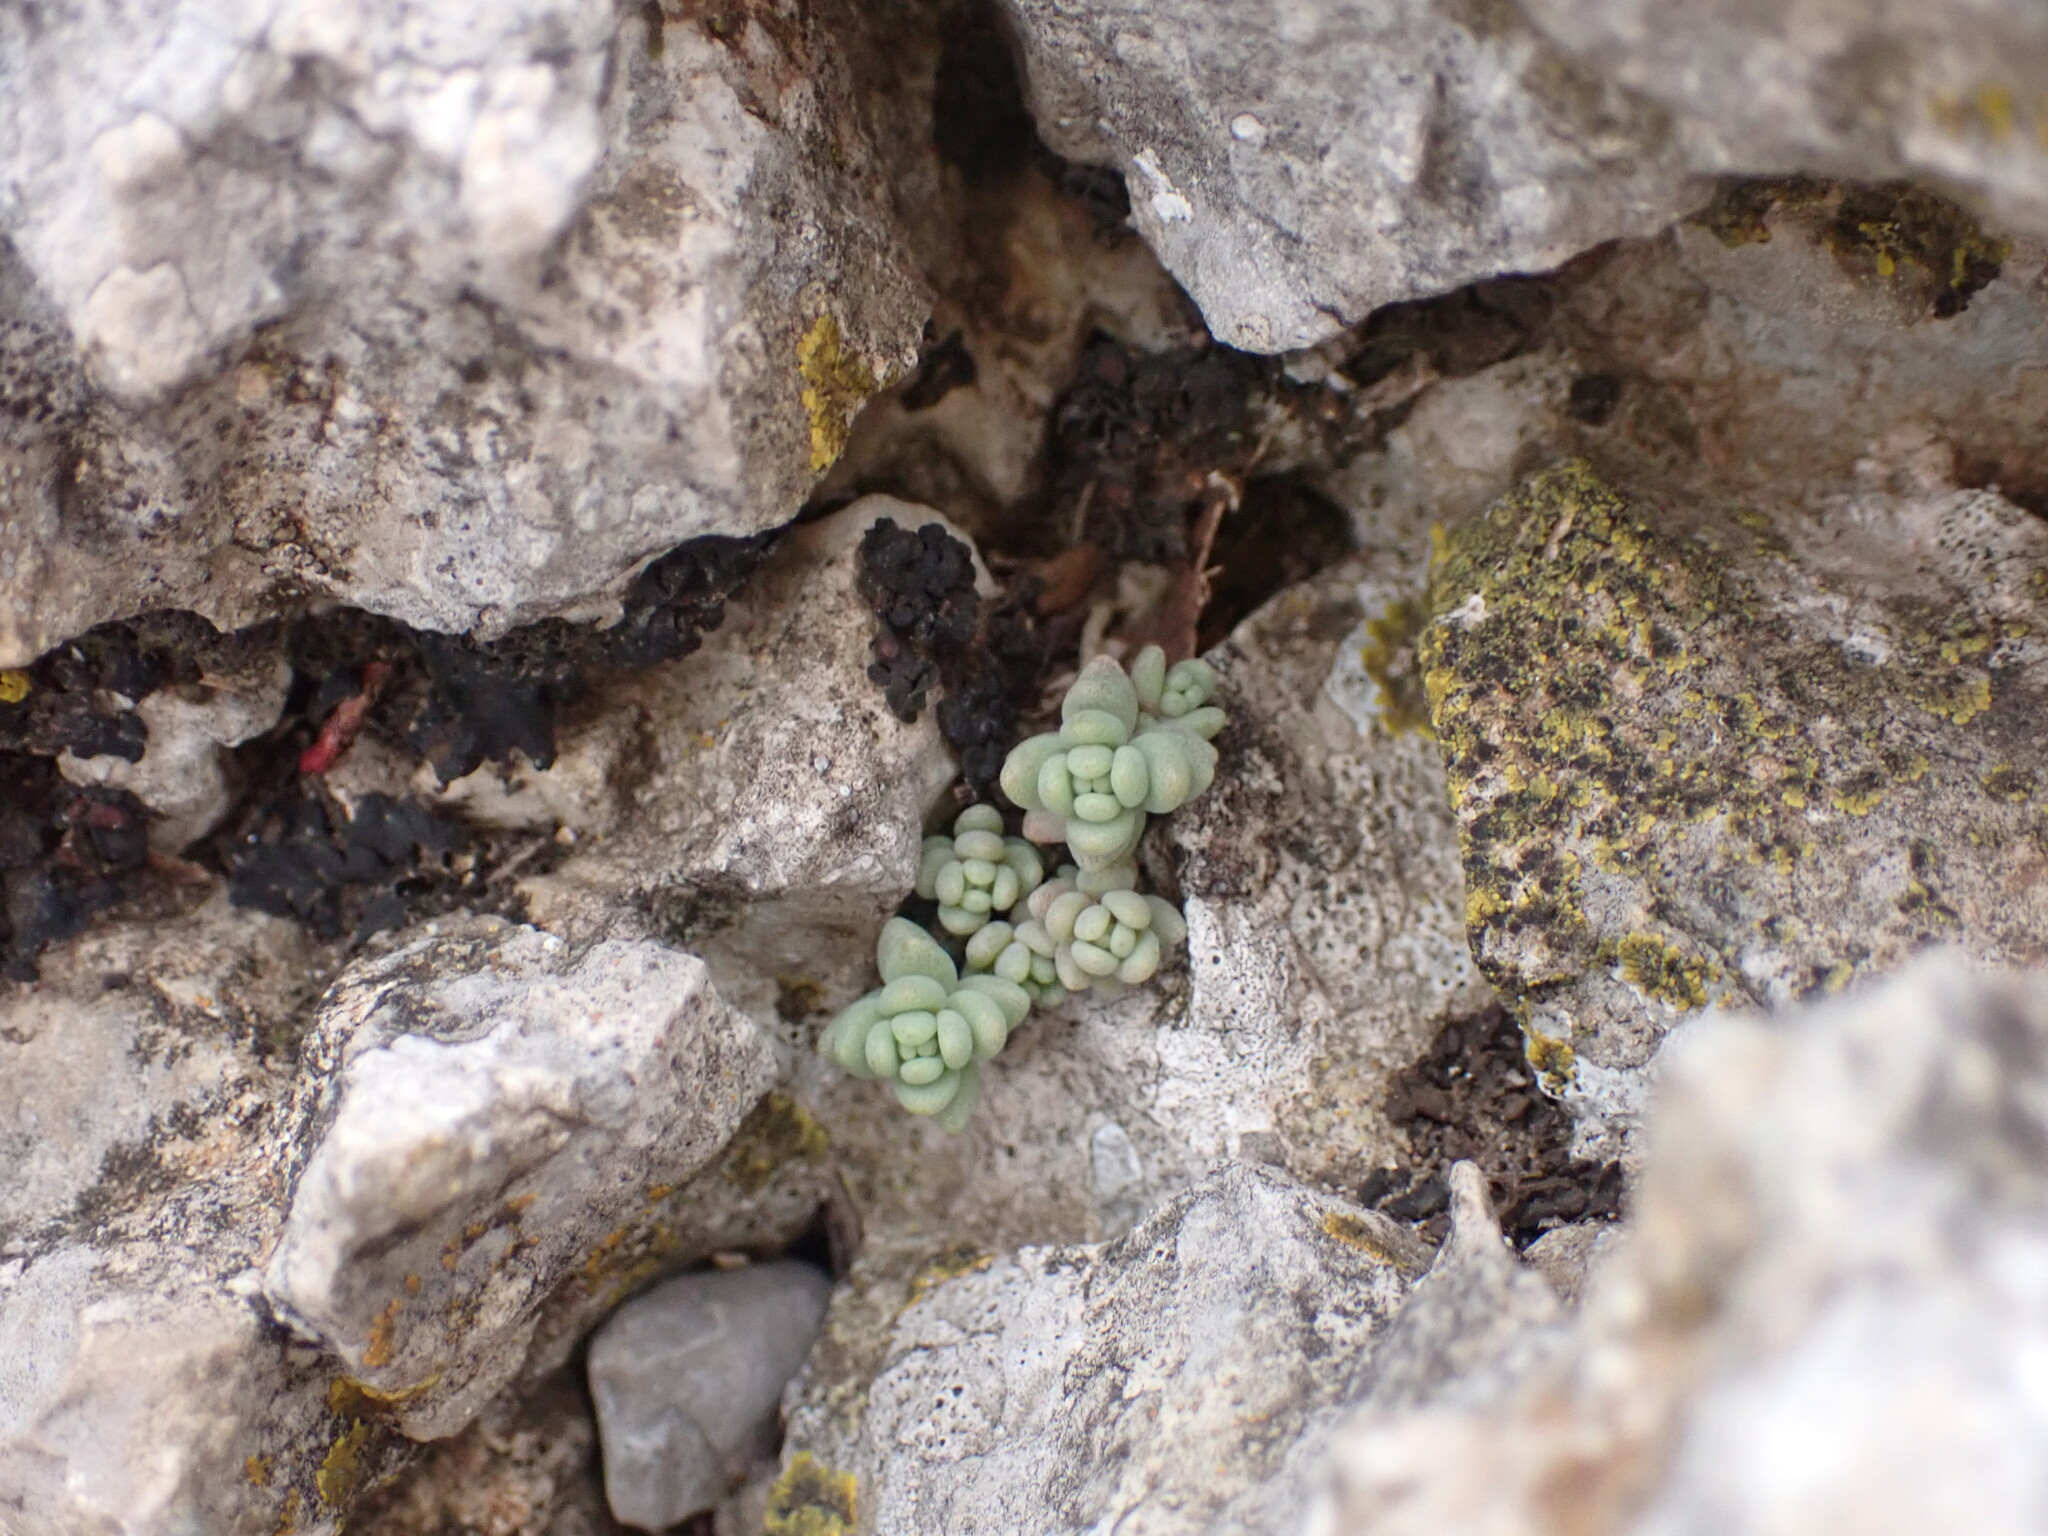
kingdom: Plantae
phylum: Tracheophyta
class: Magnoliopsida
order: Saxifragales
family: Crassulaceae
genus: Sedum
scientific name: Sedum dasyphyllum
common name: Thick-leaf stonecrop
